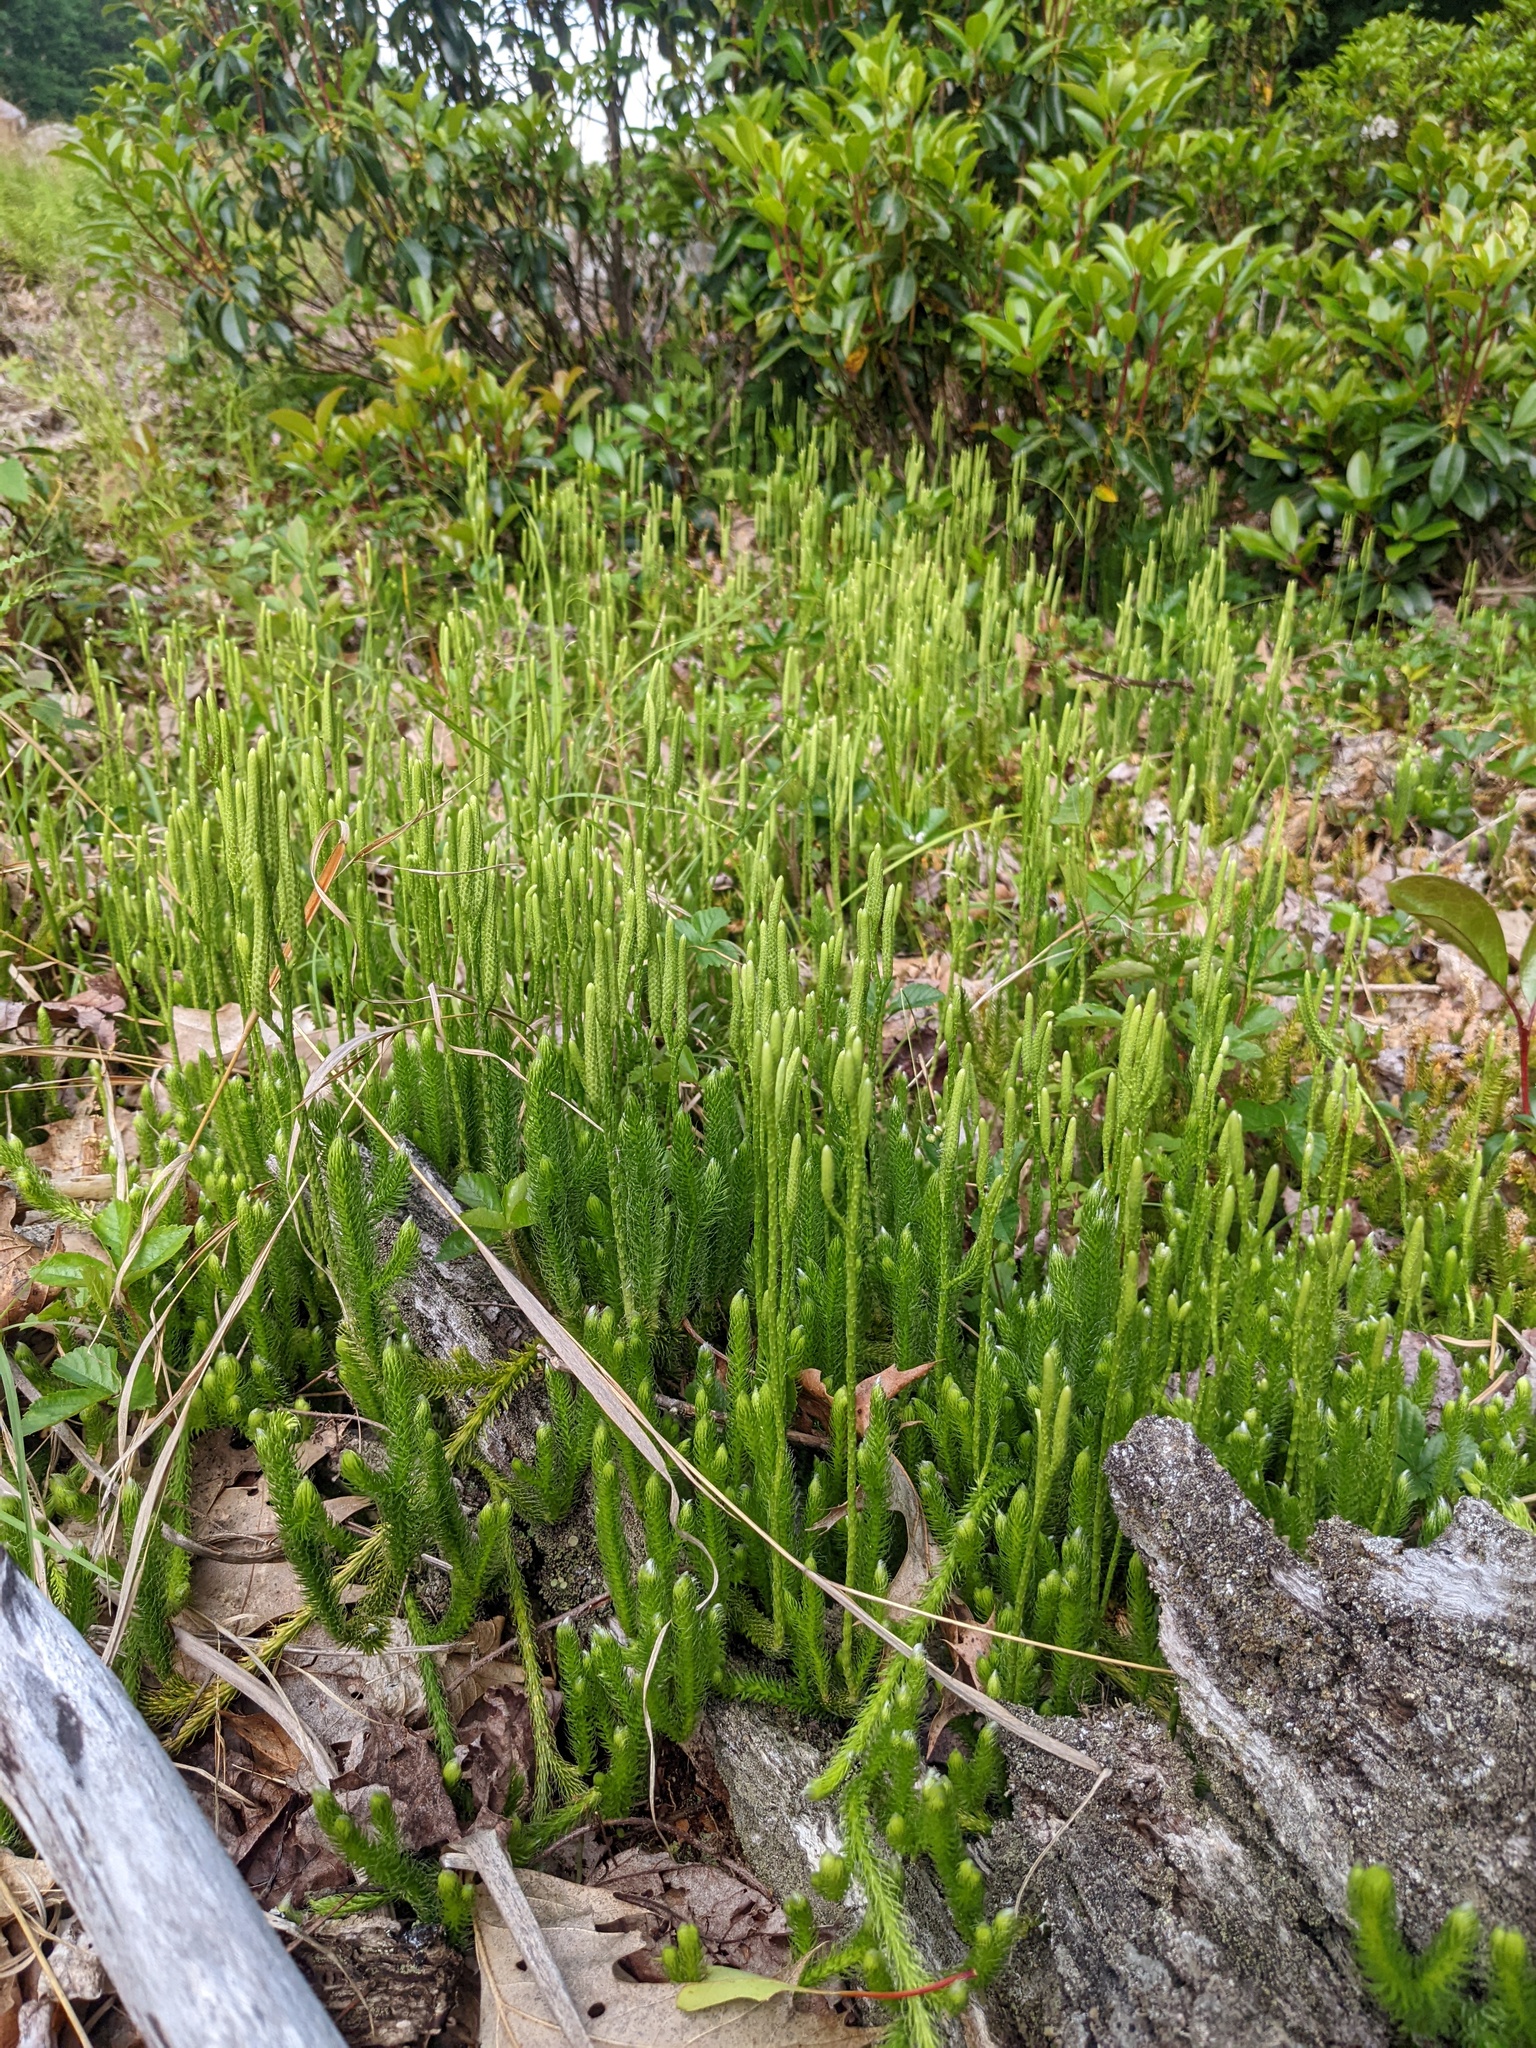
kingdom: Plantae
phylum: Tracheophyta
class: Lycopodiopsida
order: Lycopodiales
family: Lycopodiaceae
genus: Lycopodium
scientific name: Lycopodium clavatum
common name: Stag's-horn clubmoss
